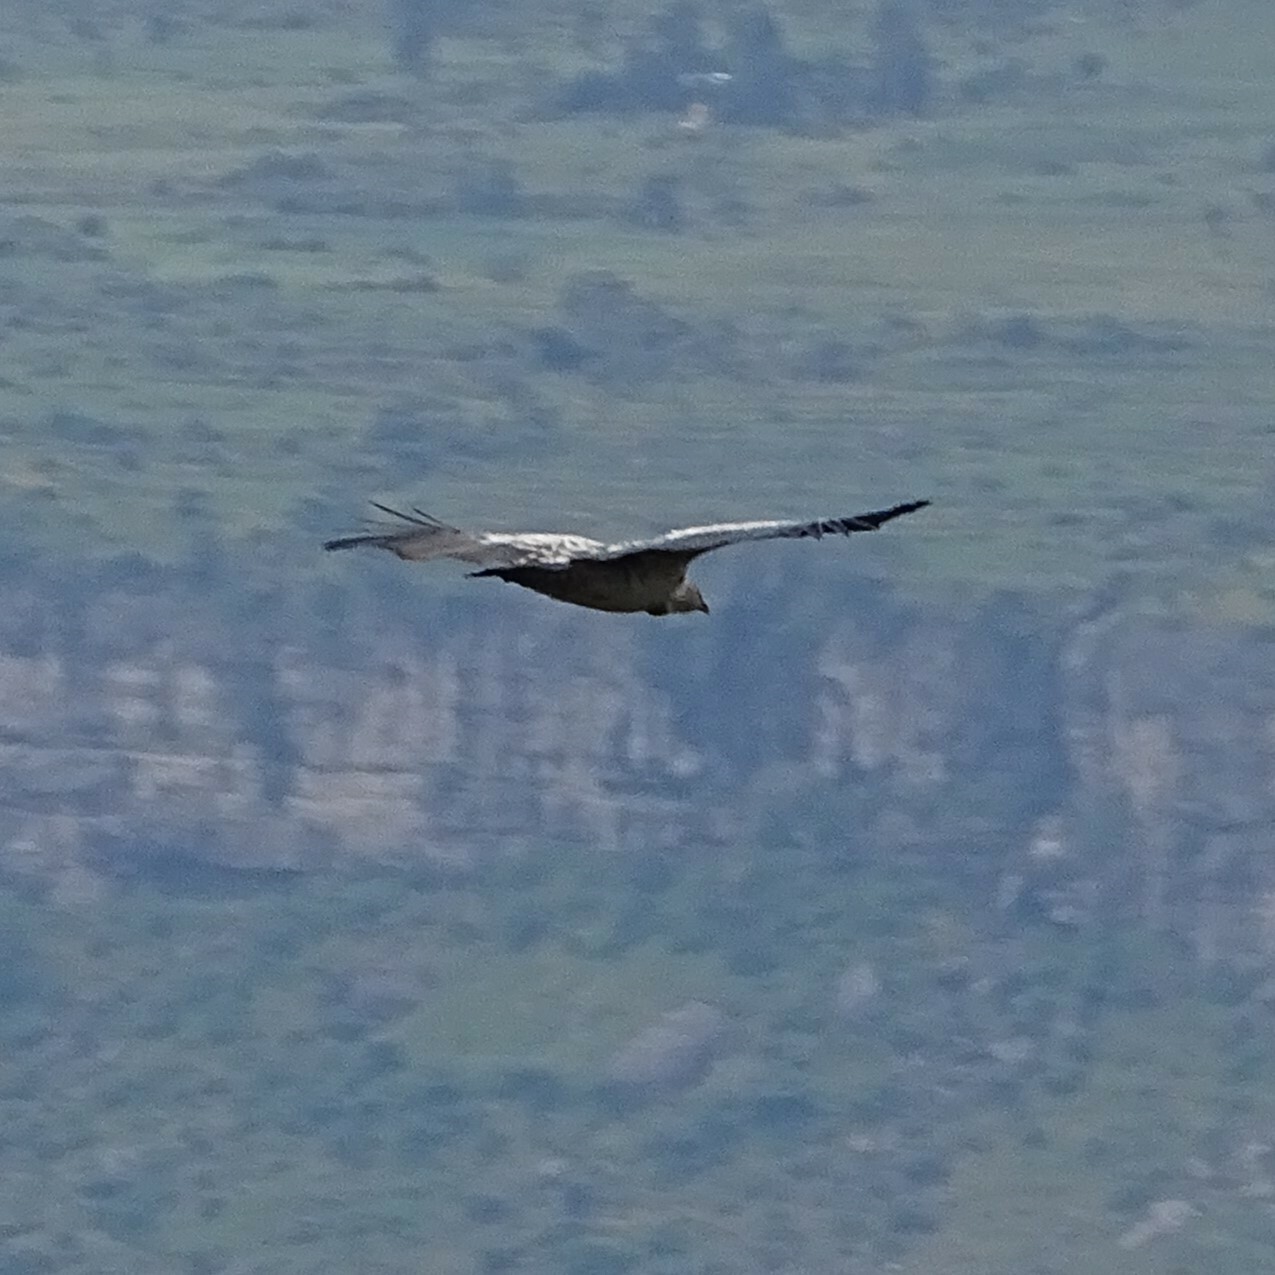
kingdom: Animalia
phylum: Chordata
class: Aves
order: Accipitriformes
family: Accipitridae
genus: Gyps
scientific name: Gyps rueppellii
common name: Rüppell's vulture
